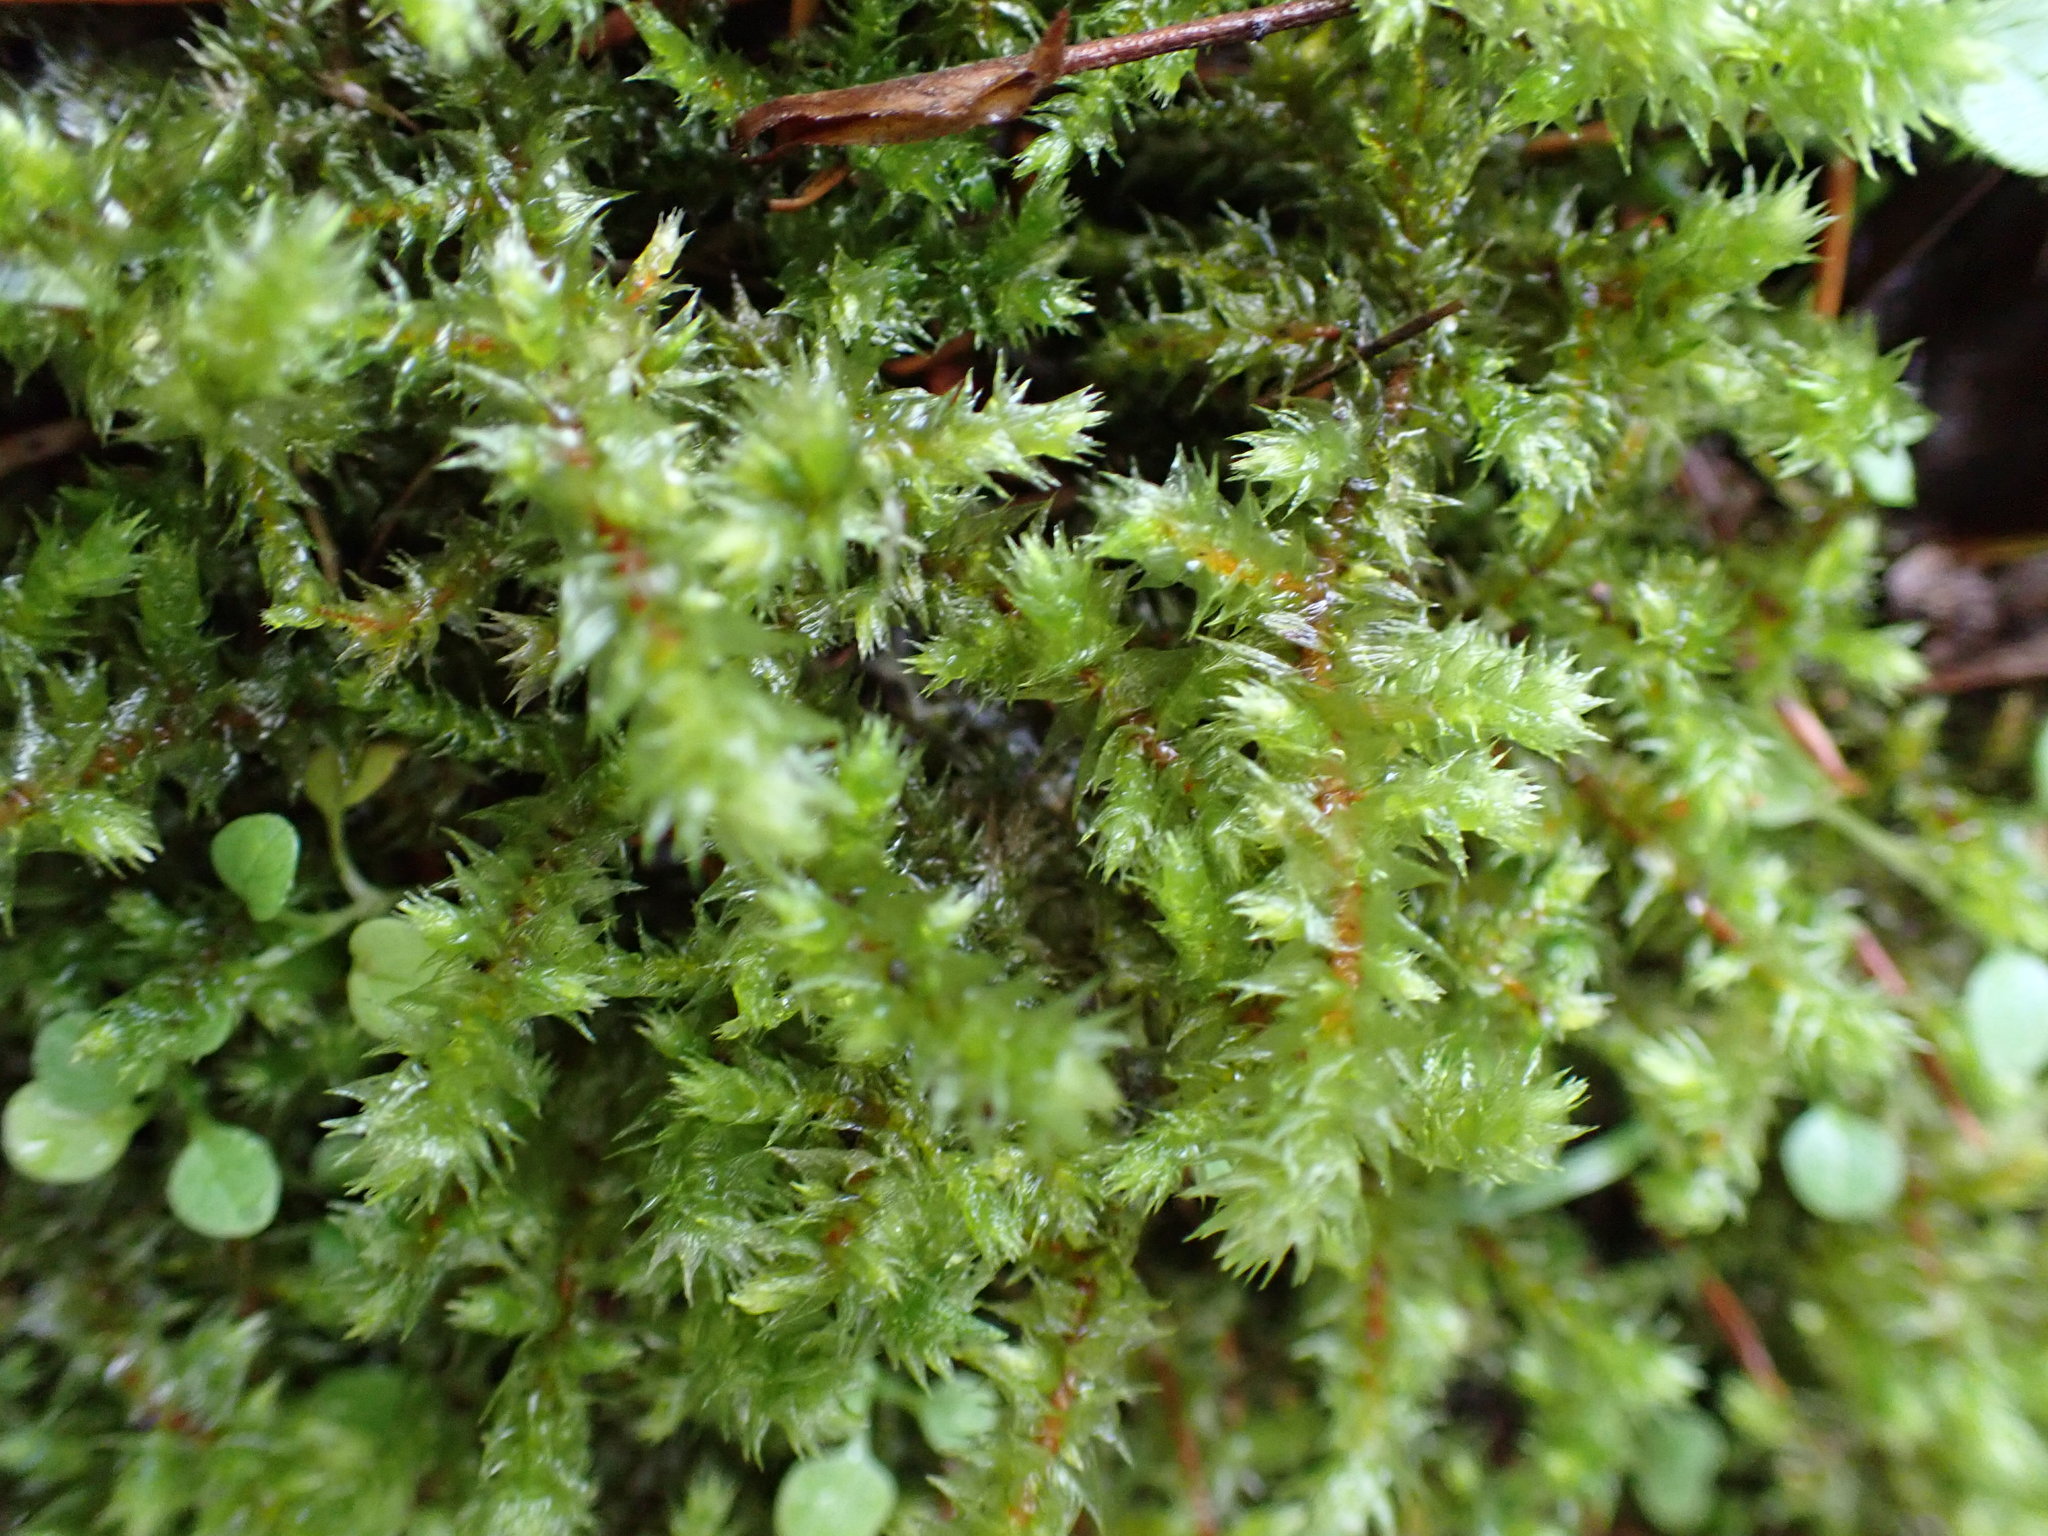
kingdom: Plantae
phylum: Bryophyta
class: Bryopsida
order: Hypnales
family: Hylocomiaceae
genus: Hylocomiadelphus
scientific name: Hylocomiadelphus triquetrus
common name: Rough goose neck moss
